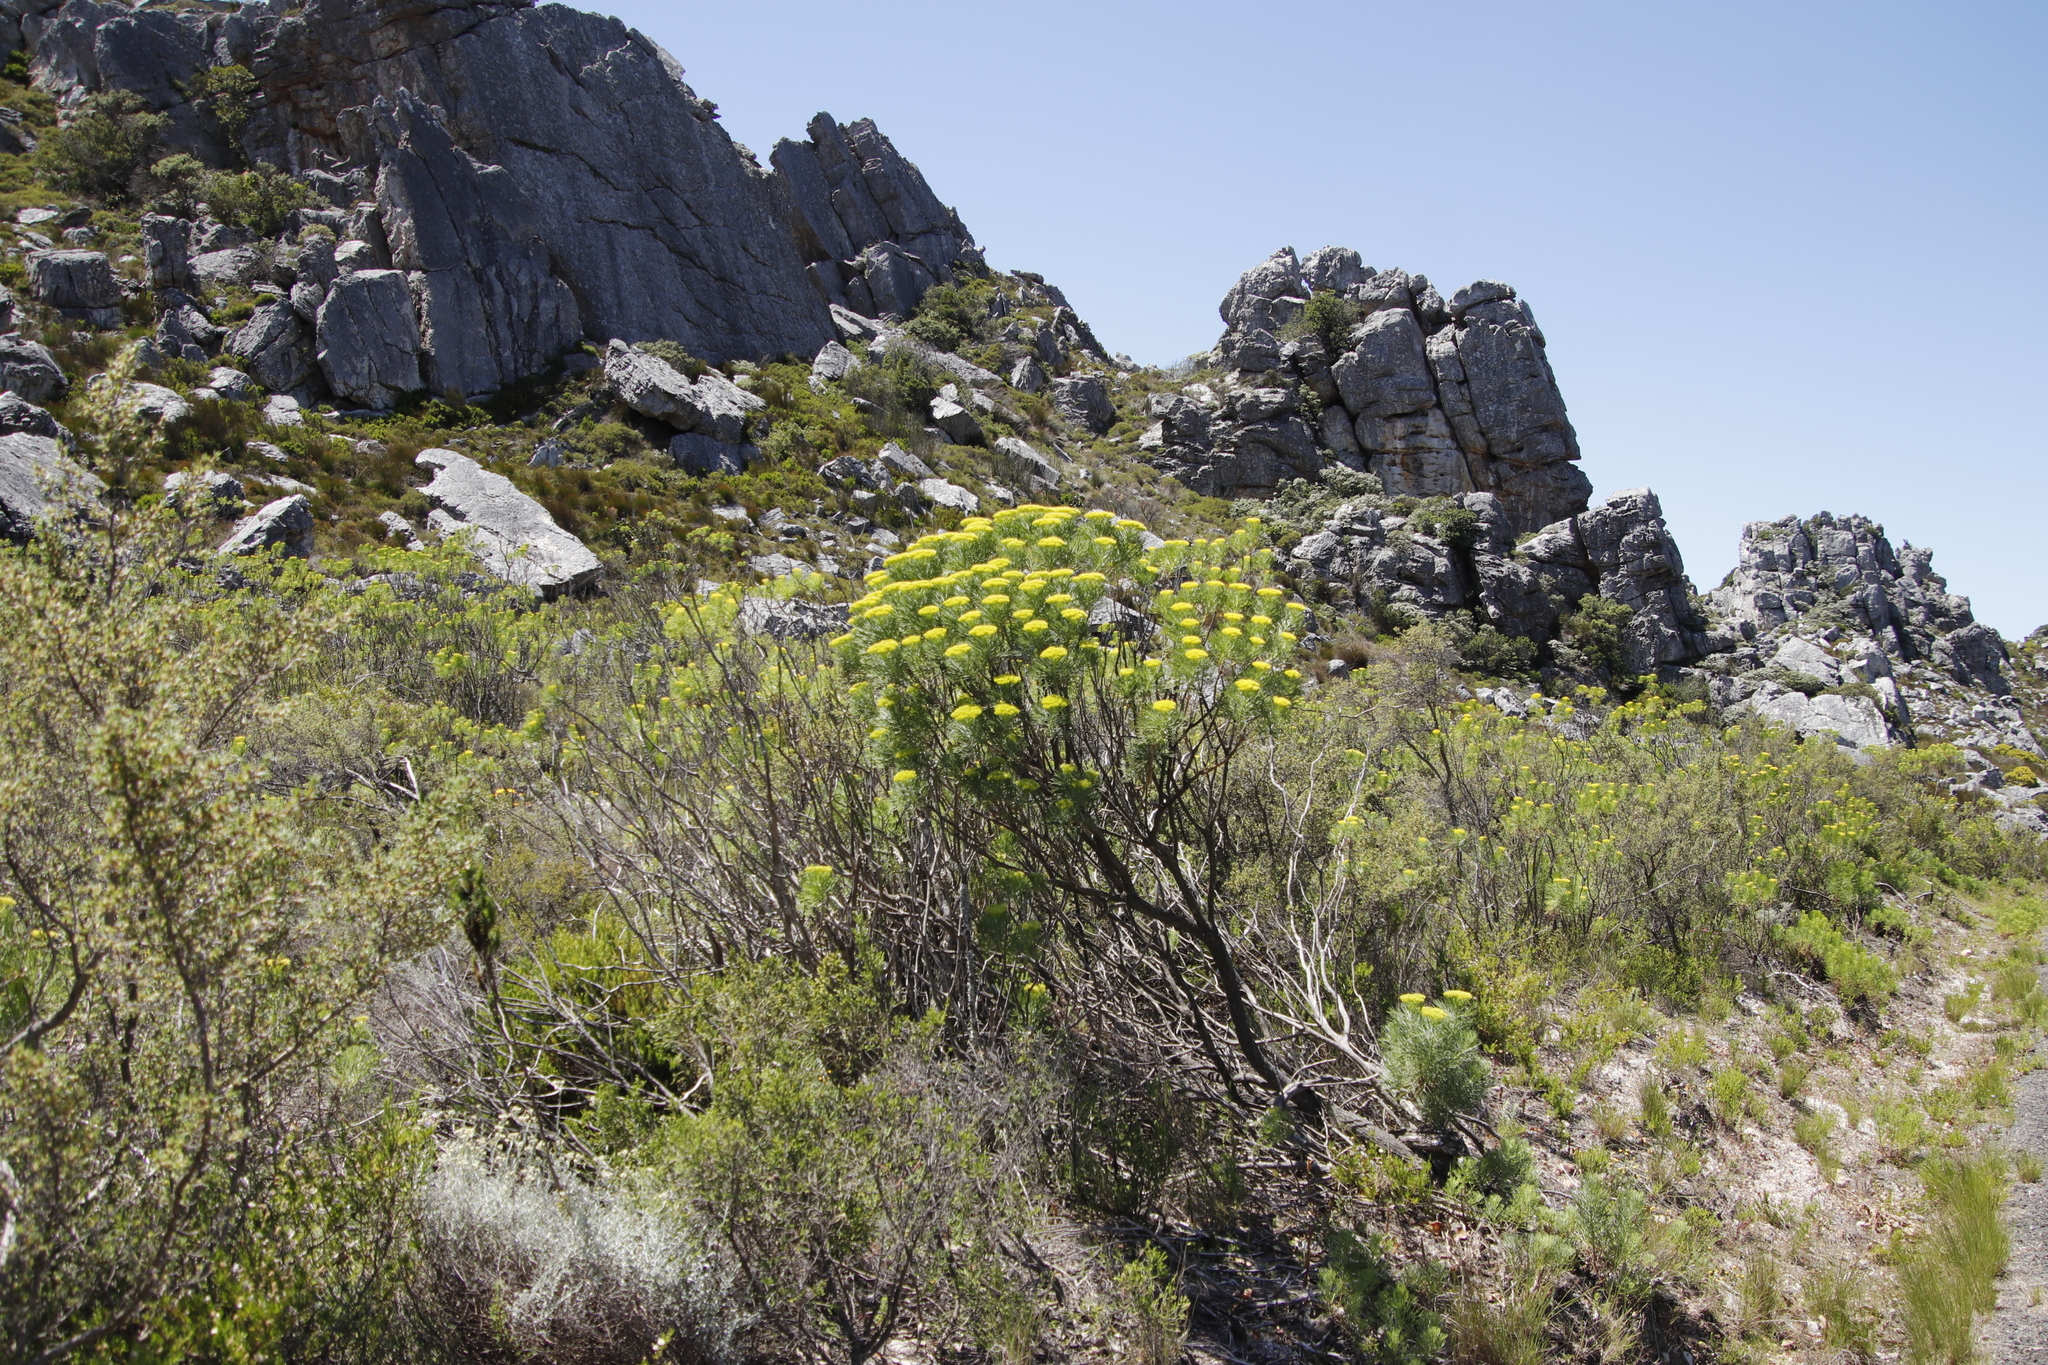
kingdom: Plantae
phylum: Tracheophyta
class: Magnoliopsida
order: Asterales
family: Asteraceae
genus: Hymenolepis
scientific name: Hymenolepis crithmifolia
